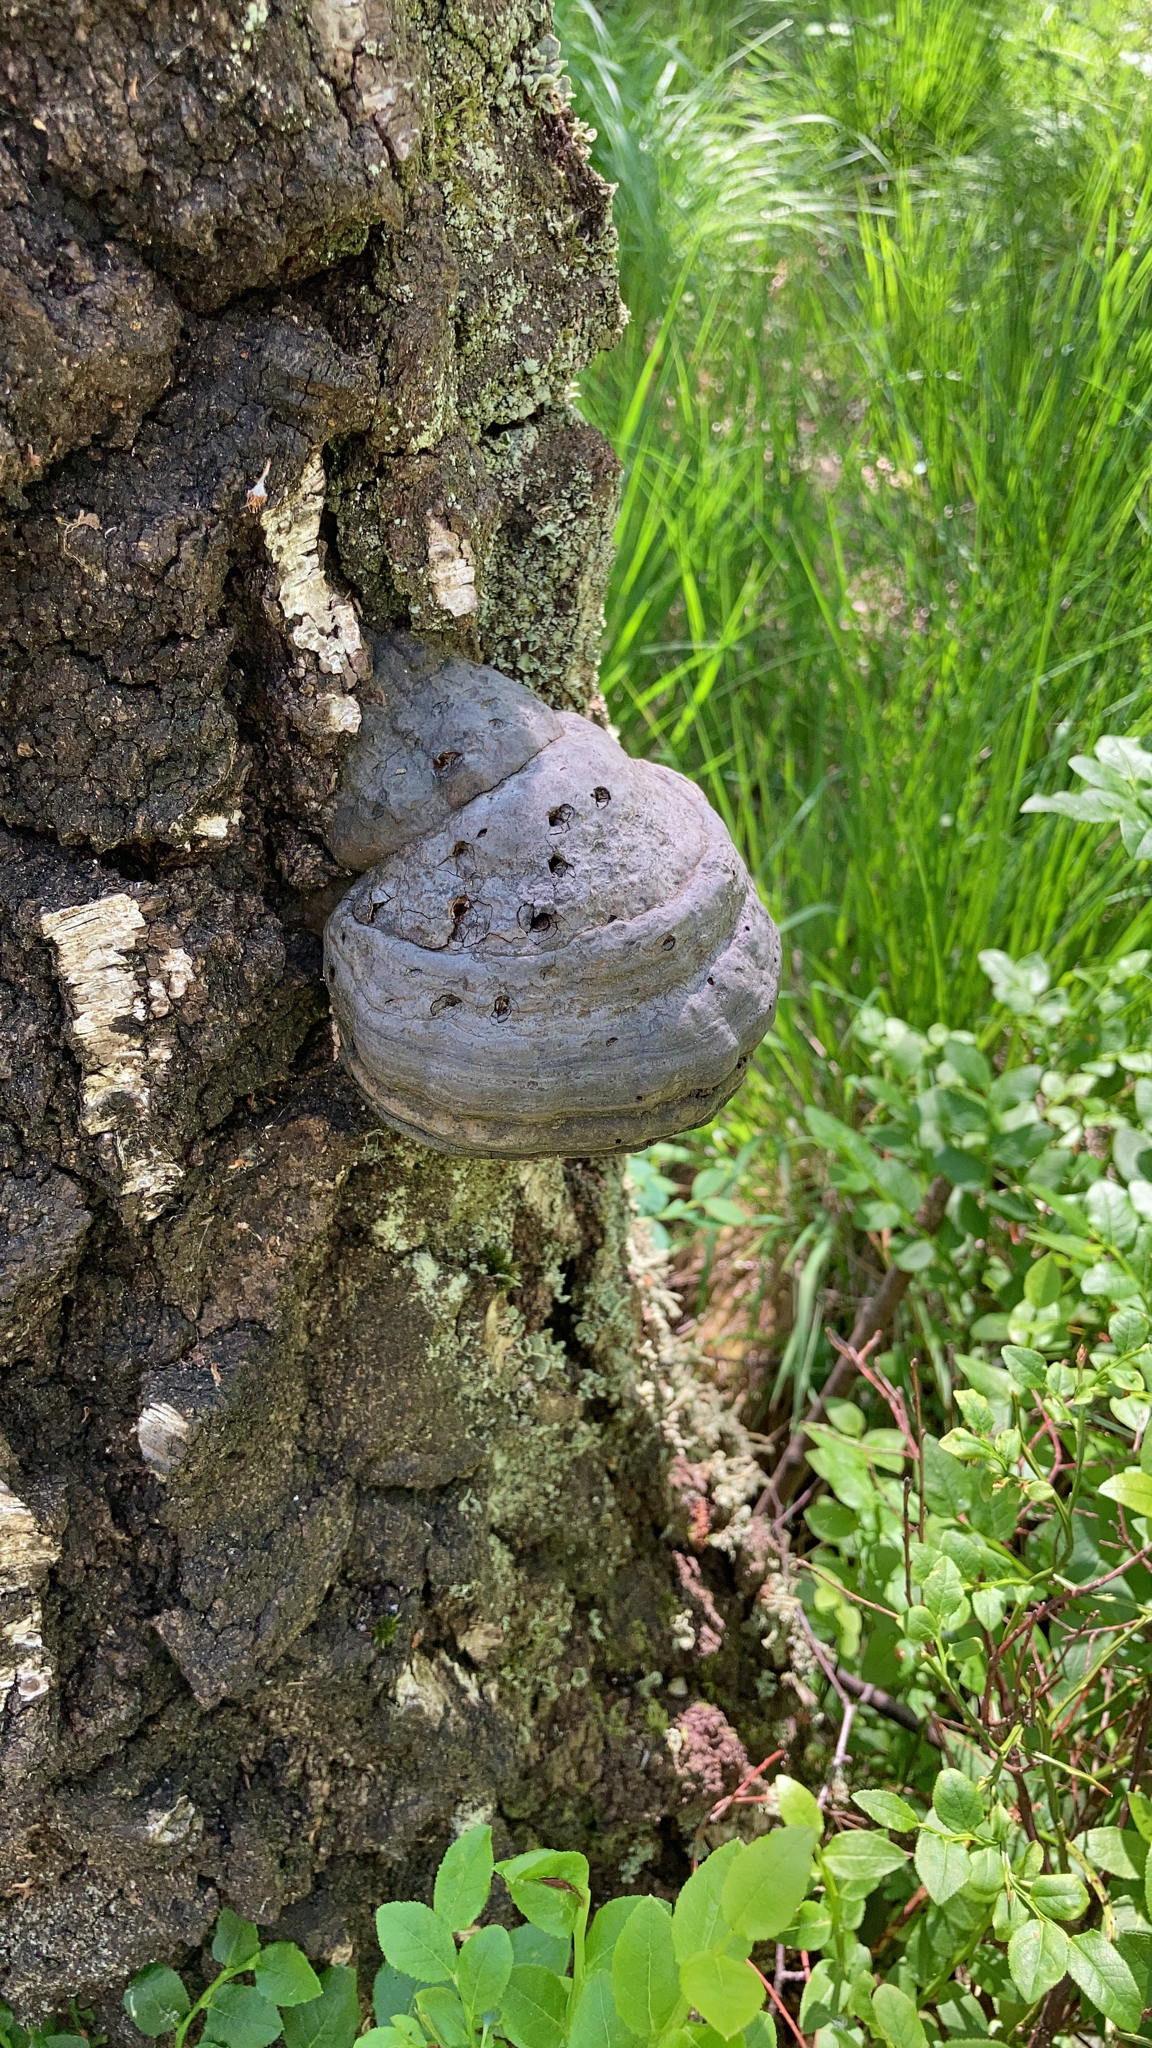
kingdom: Fungi
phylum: Basidiomycota
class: Agaricomycetes
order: Polyporales
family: Polyporaceae
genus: Fomes
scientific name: Fomes fomentarius
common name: Hoof fungus
